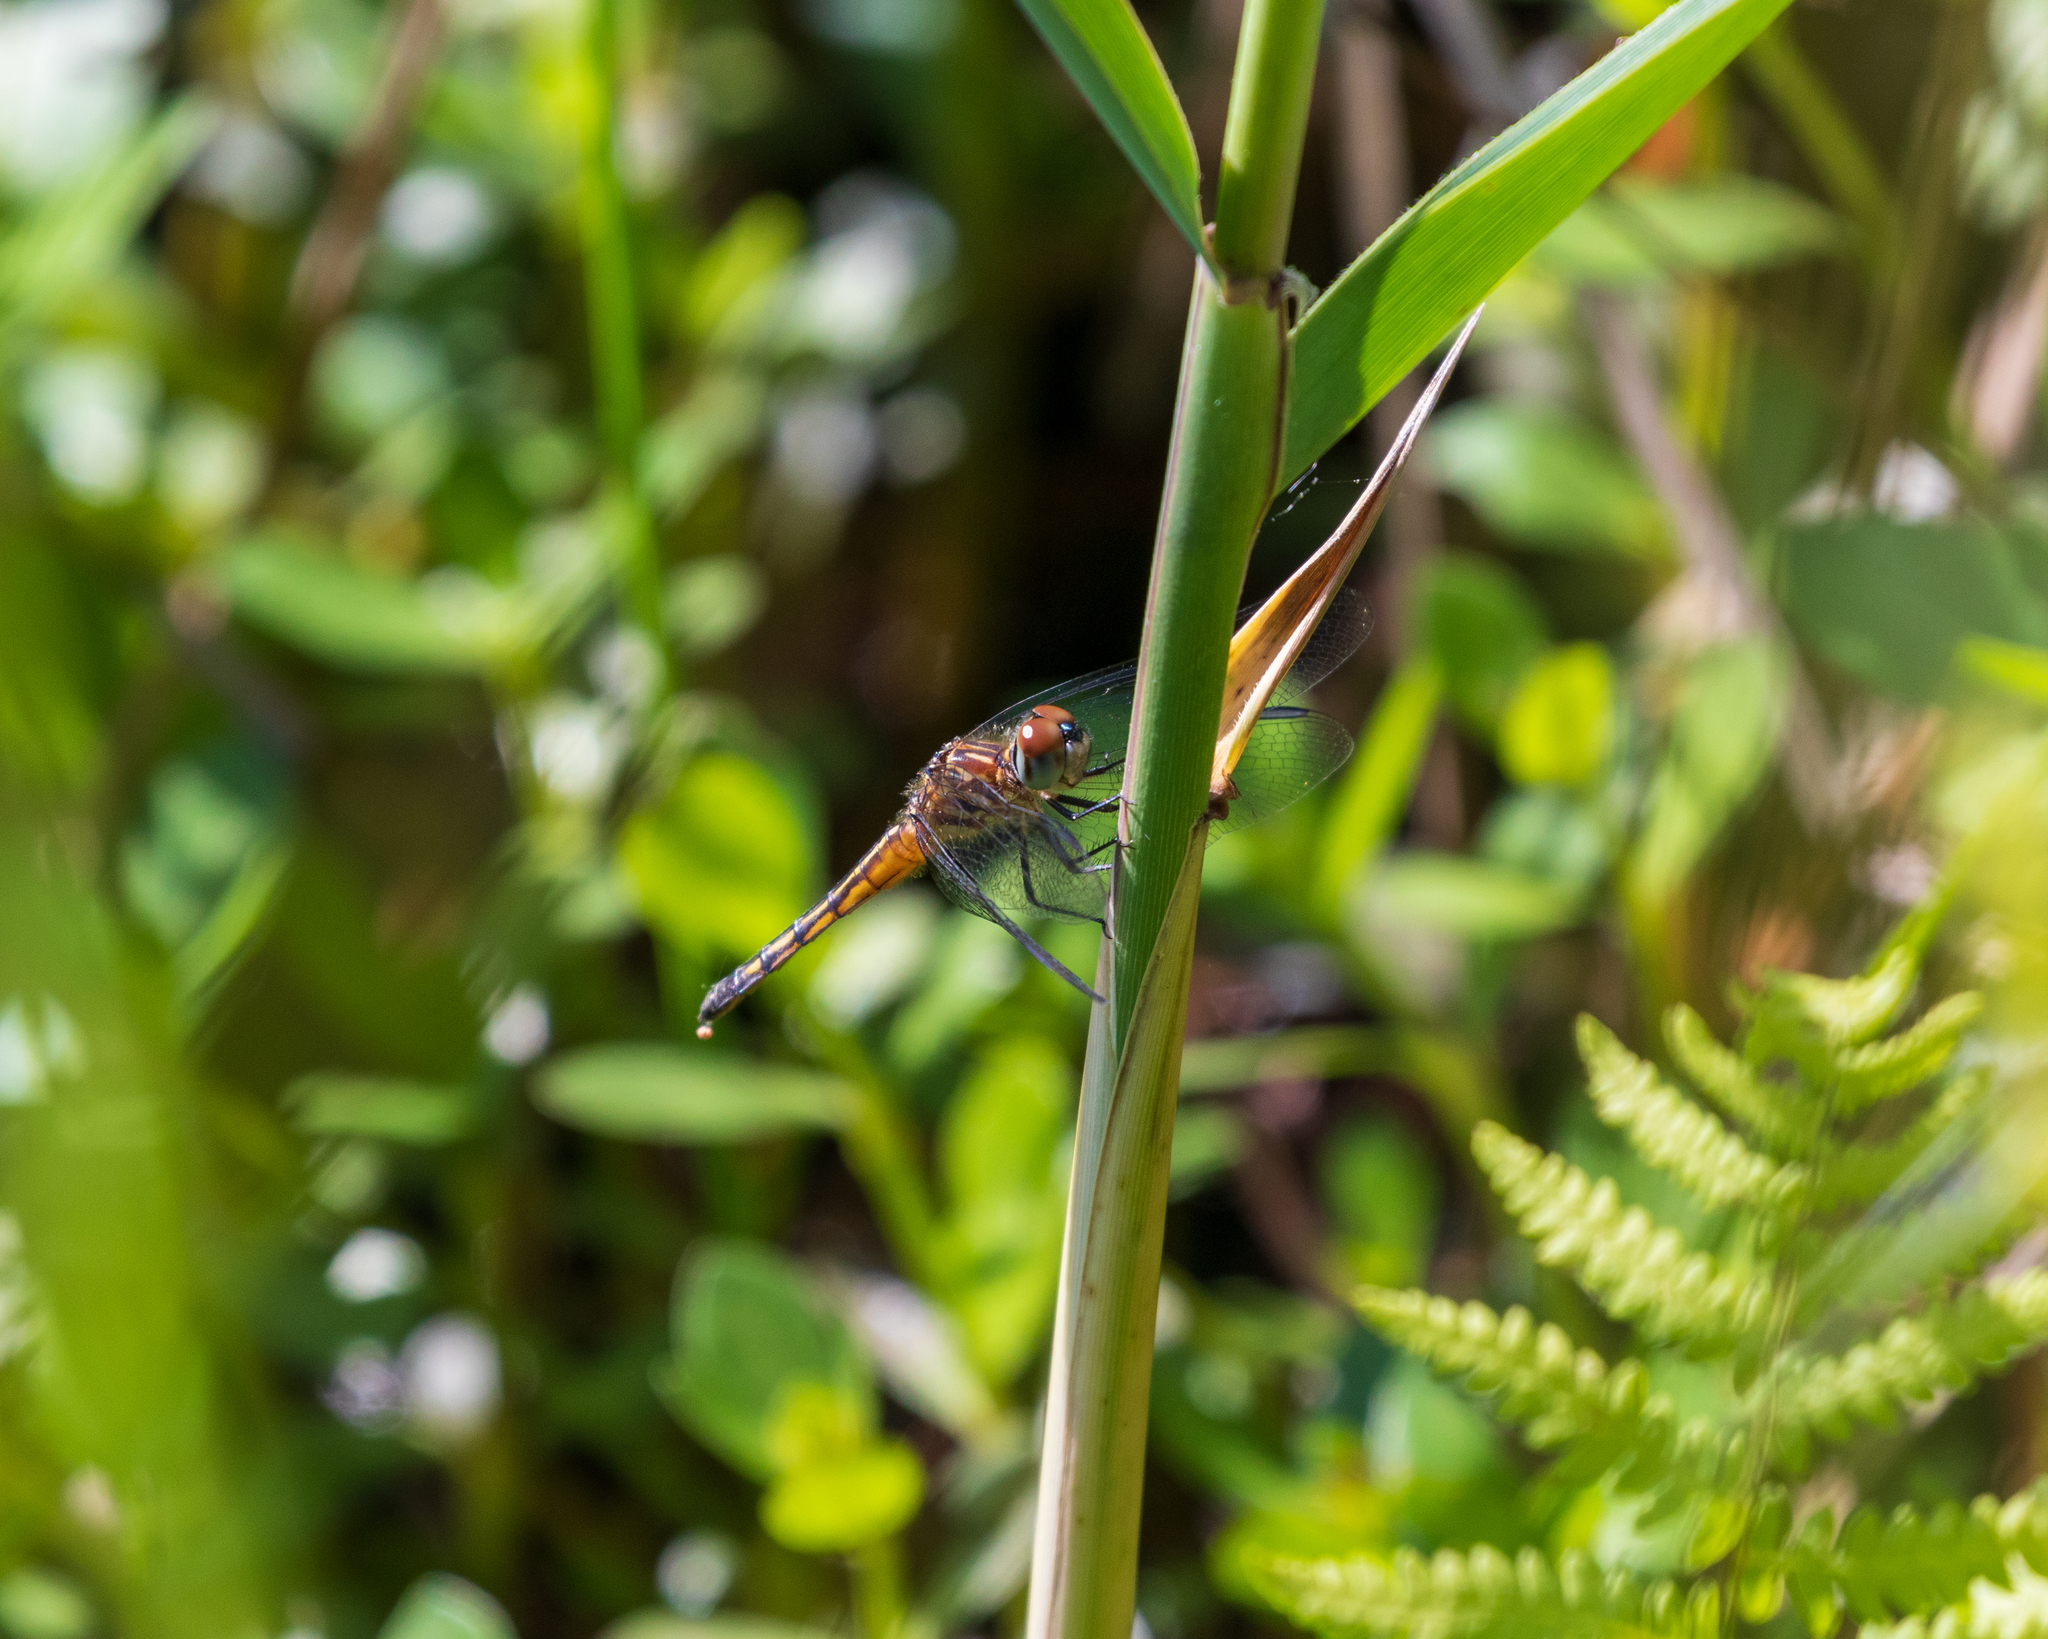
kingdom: Animalia
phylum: Arthropoda
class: Insecta
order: Odonata
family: Libellulidae
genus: Pachydiplax
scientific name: Pachydiplax longipennis
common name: Blue dasher
